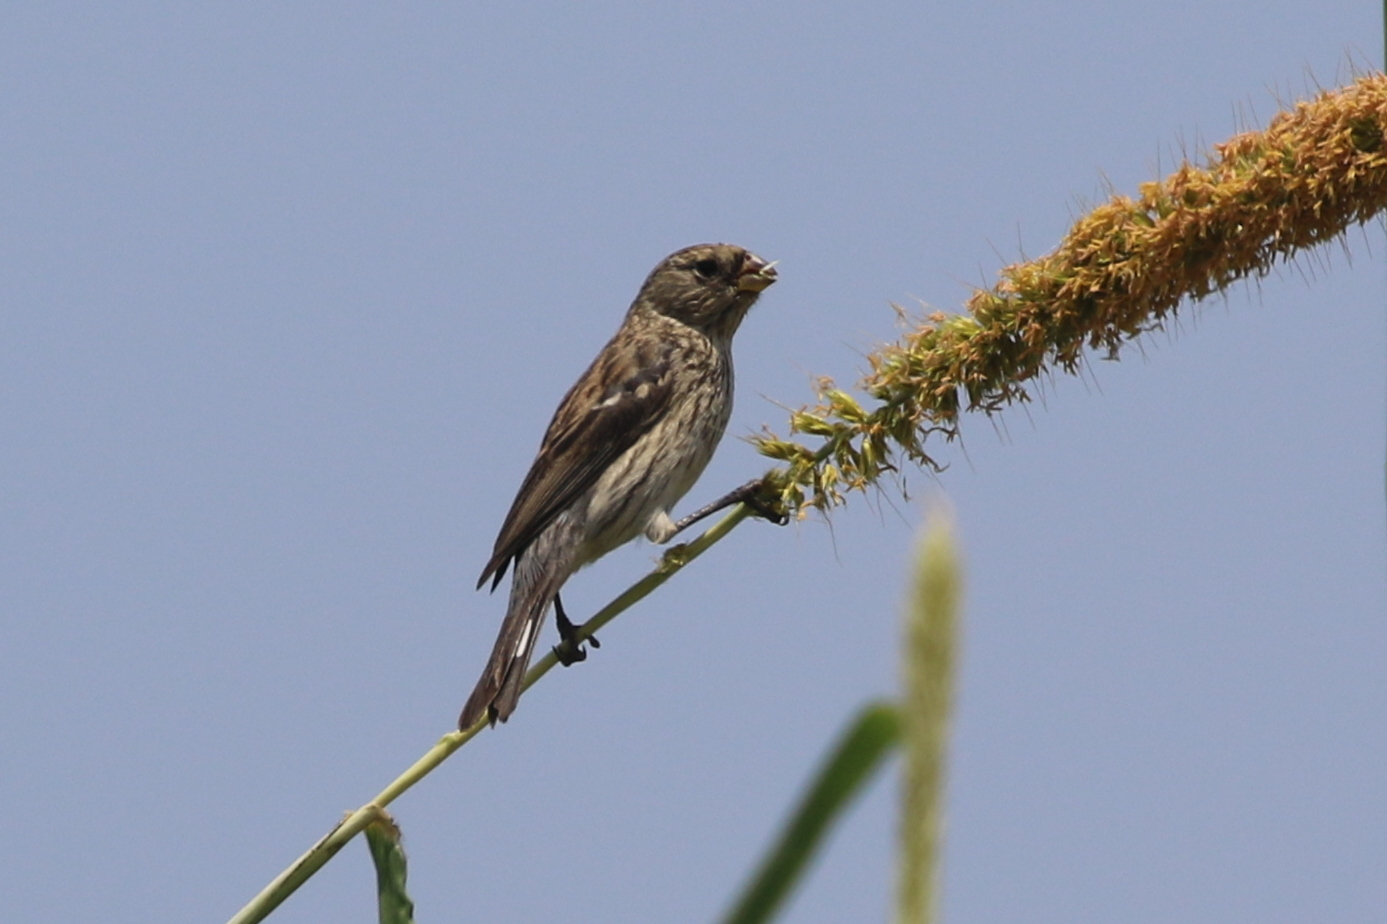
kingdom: Animalia
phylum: Chordata
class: Aves
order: Passeriformes
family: Thraupidae
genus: Catamenia
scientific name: Catamenia analis
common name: Band-tailed seedeater
